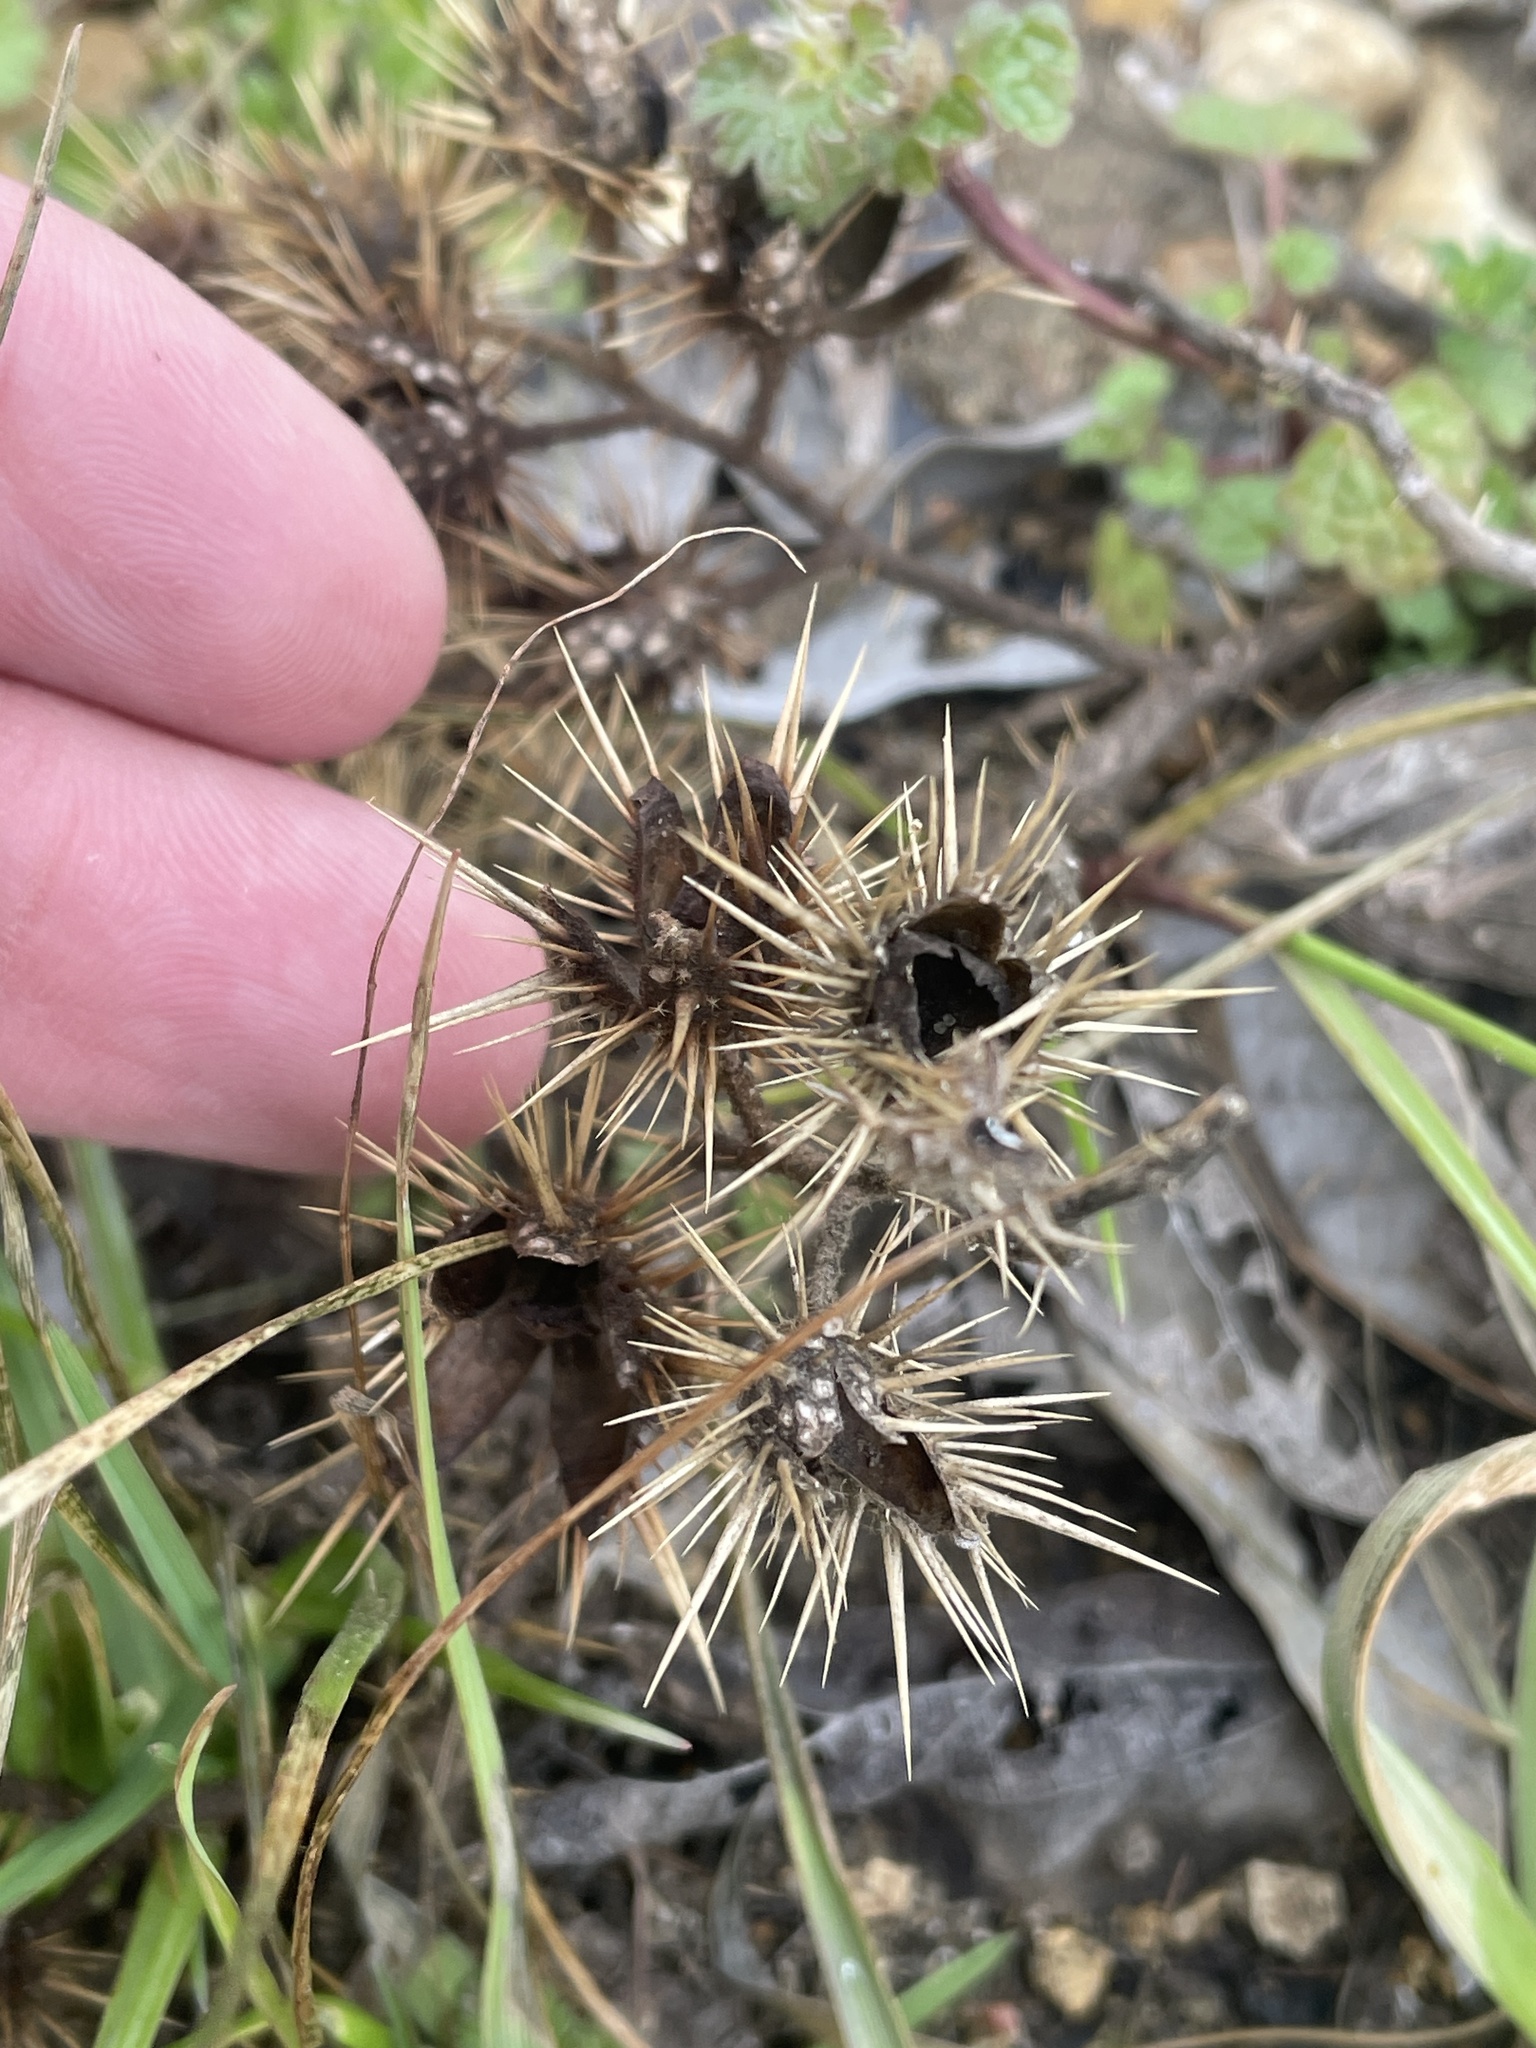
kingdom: Plantae
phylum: Tracheophyta
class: Magnoliopsida
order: Solanales
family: Solanaceae
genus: Solanum
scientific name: Solanum angustifolium
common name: Buffalobur nightshade
